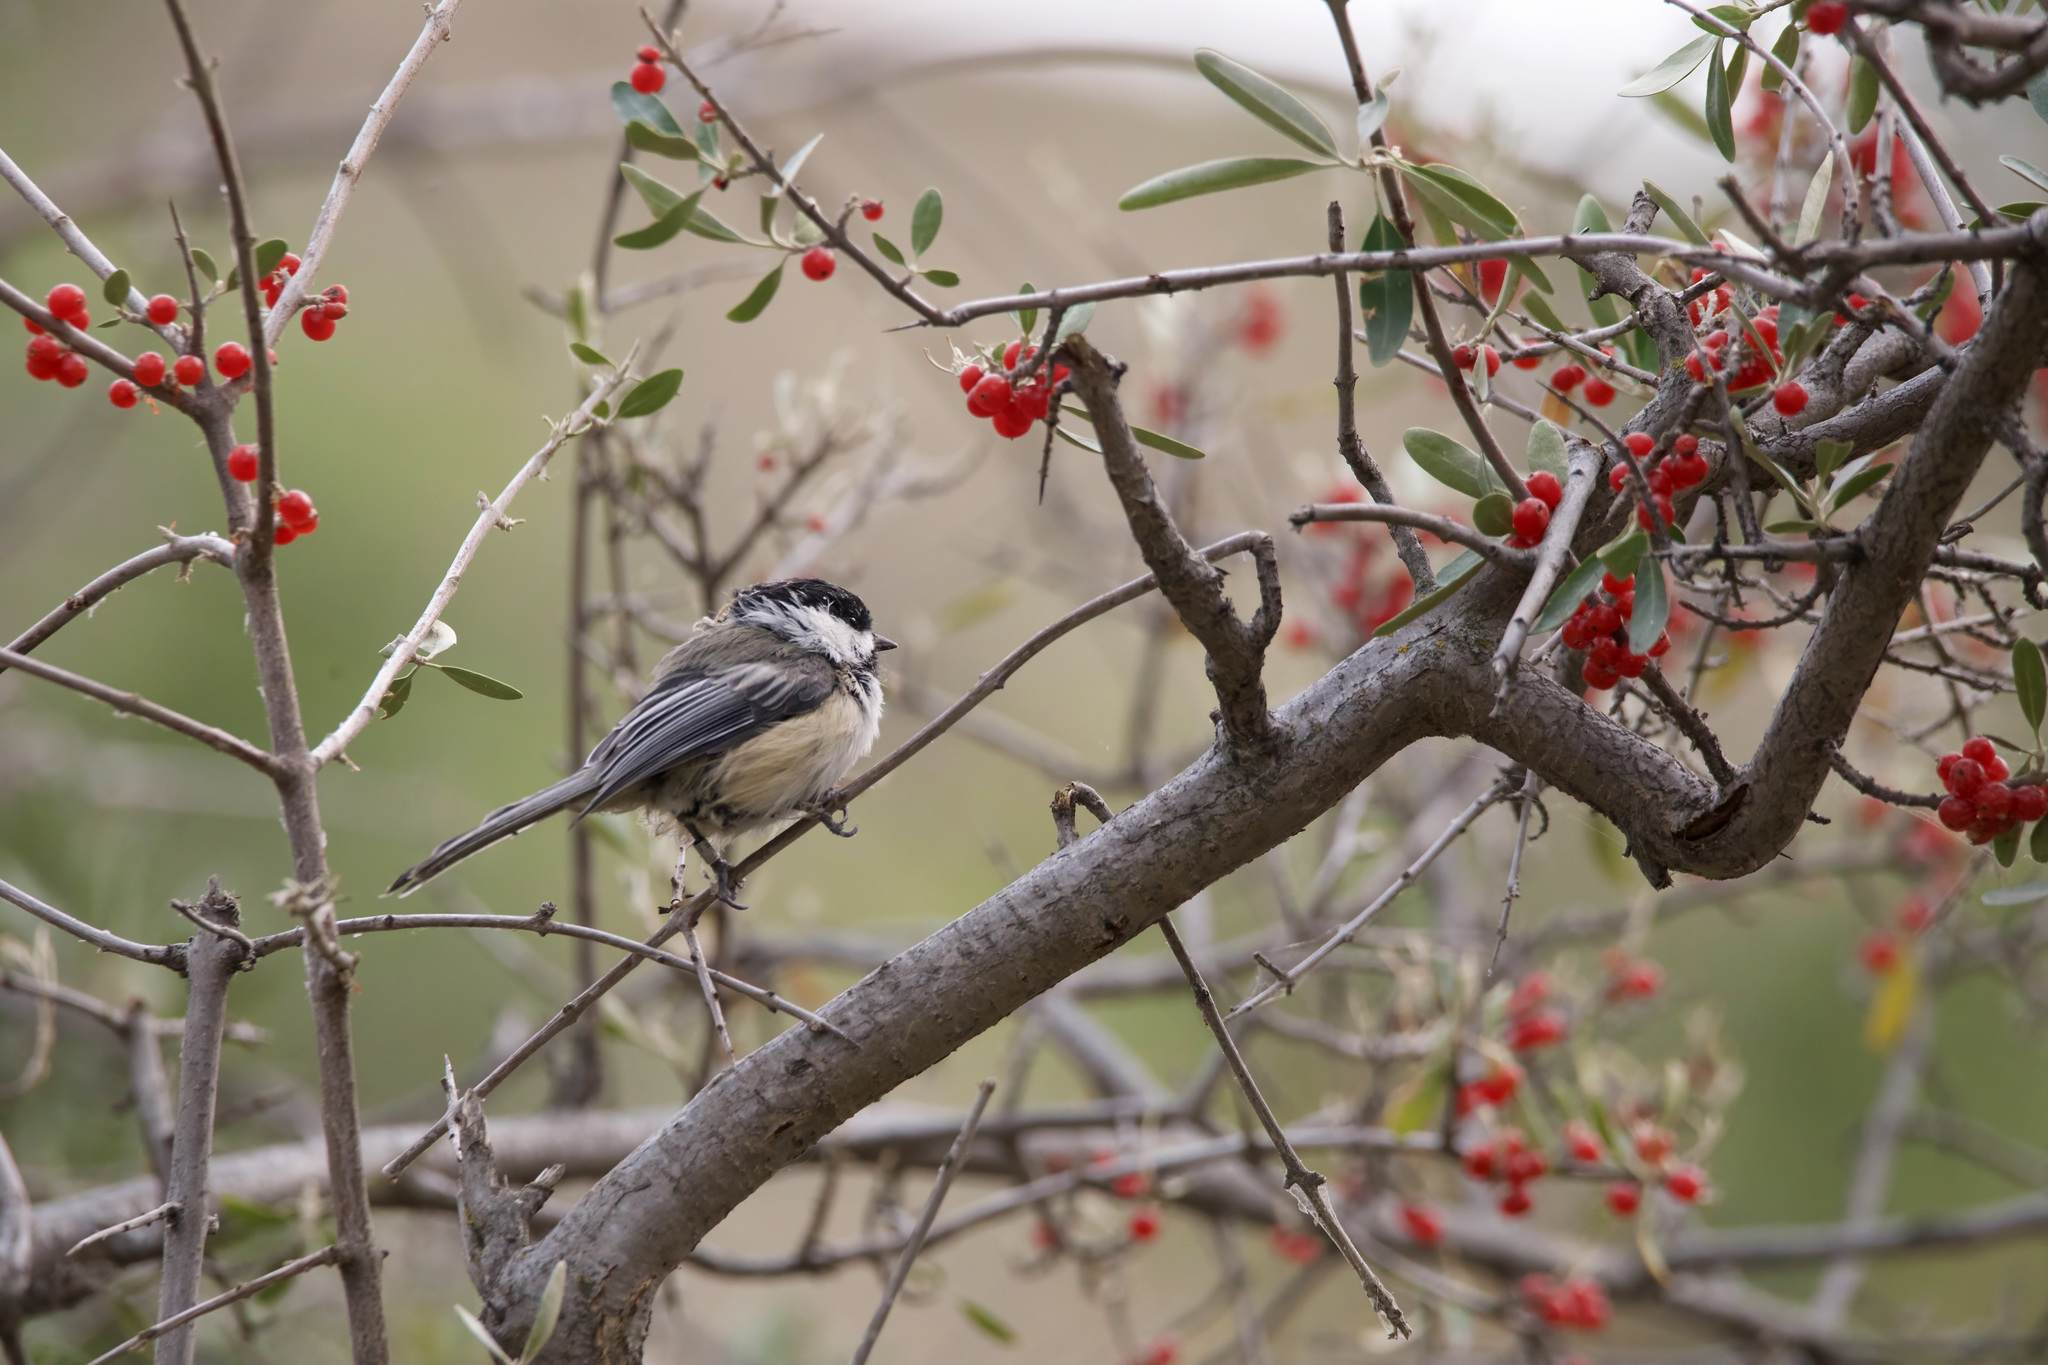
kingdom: Animalia
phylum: Chordata
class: Aves
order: Passeriformes
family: Paridae
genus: Poecile
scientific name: Poecile atricapillus
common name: Black-capped chickadee
